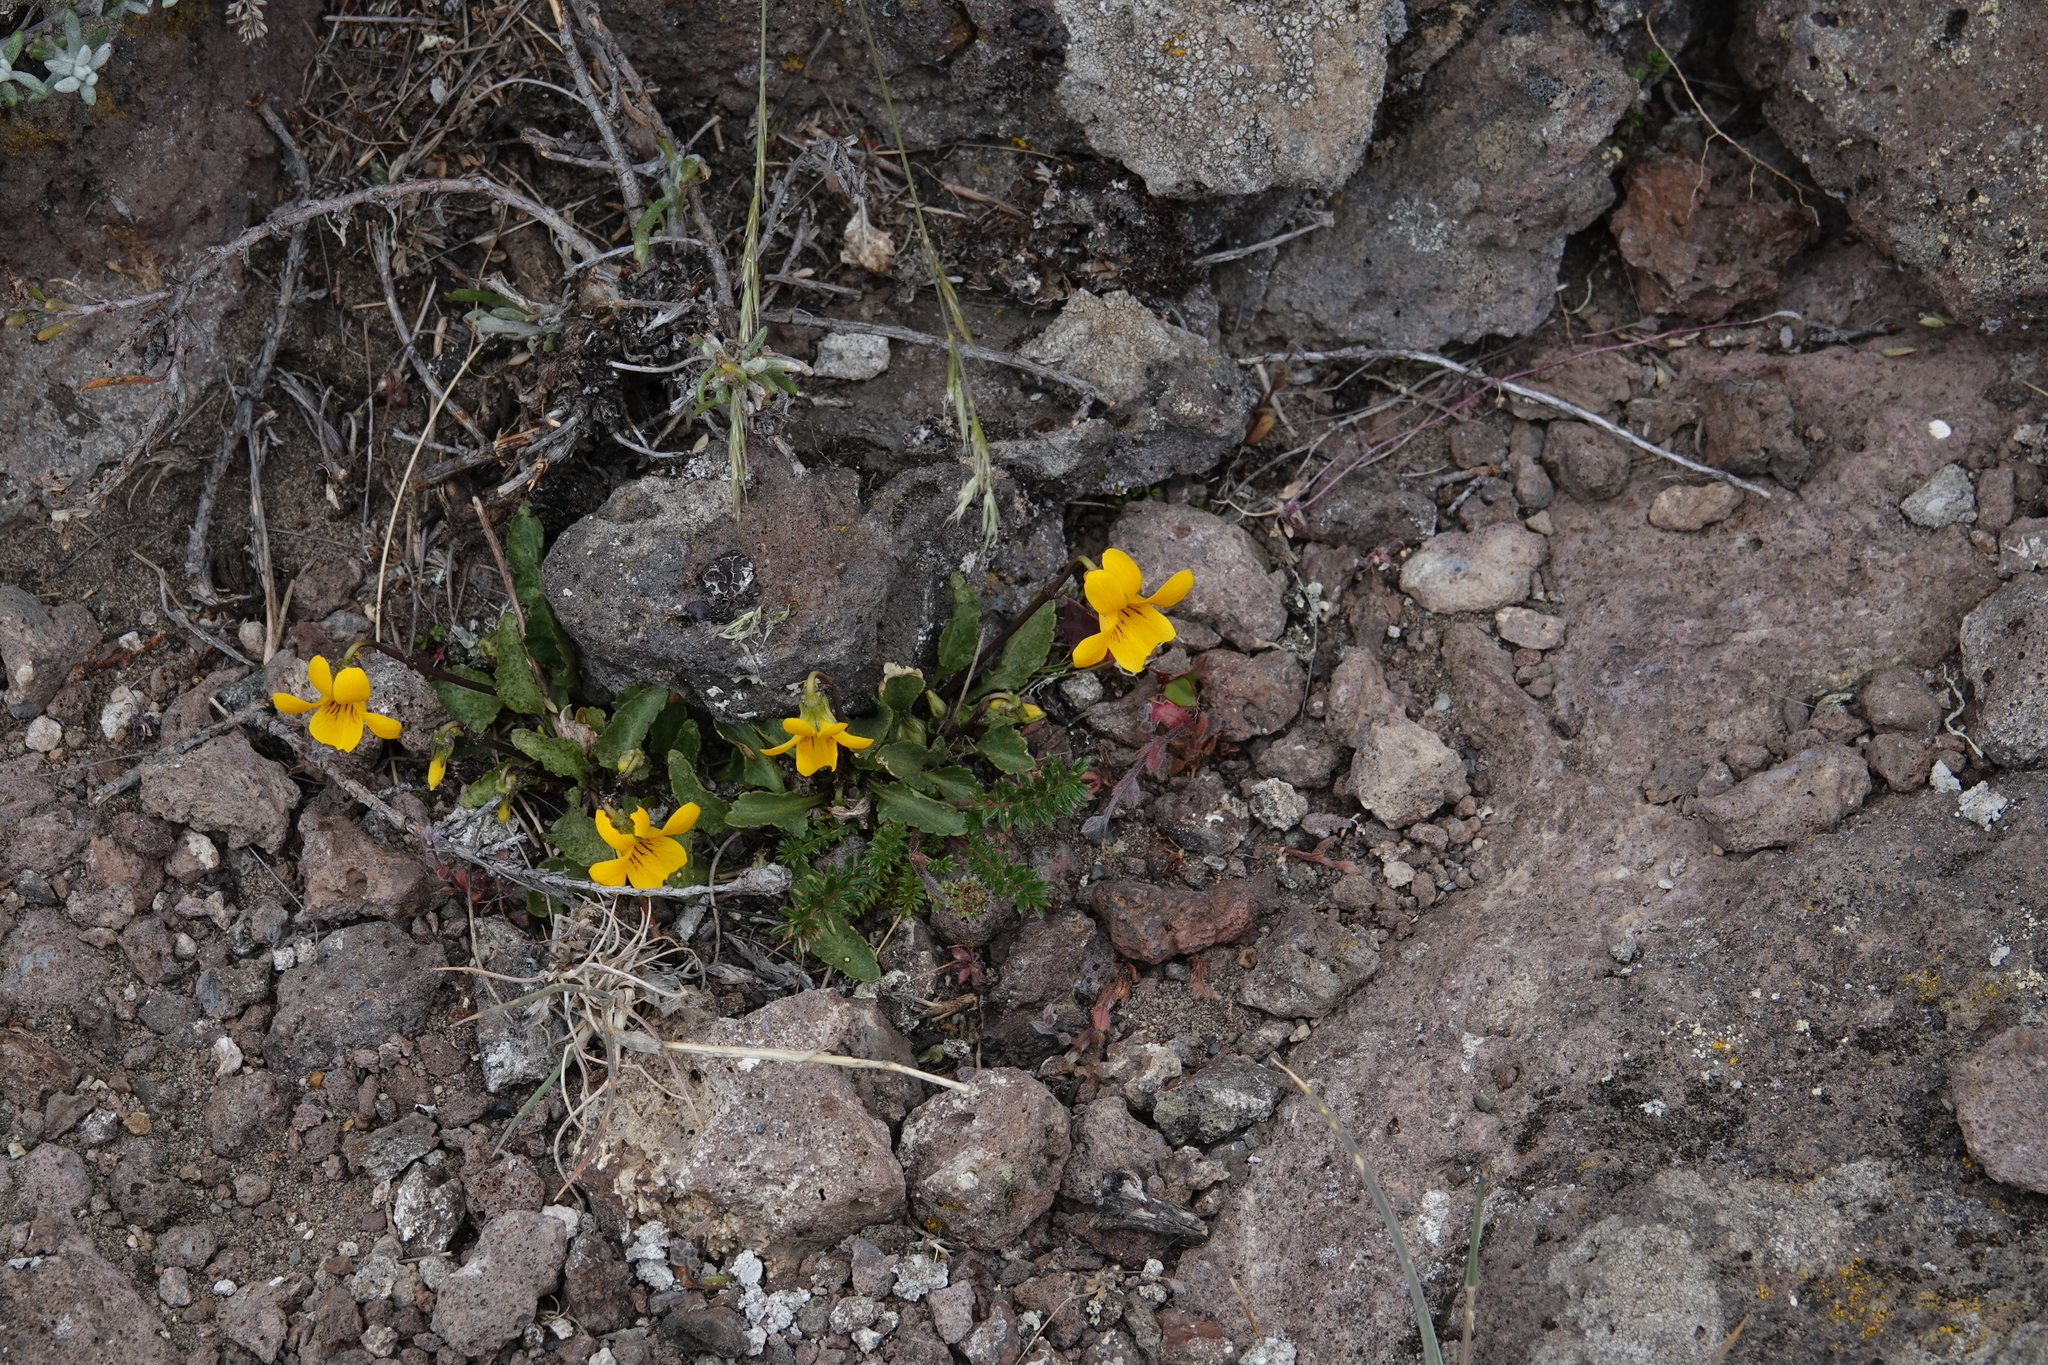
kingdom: Plantae
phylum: Tracheophyta
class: Magnoliopsida
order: Malpighiales
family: Violaceae
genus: Viola
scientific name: Viola maculata
